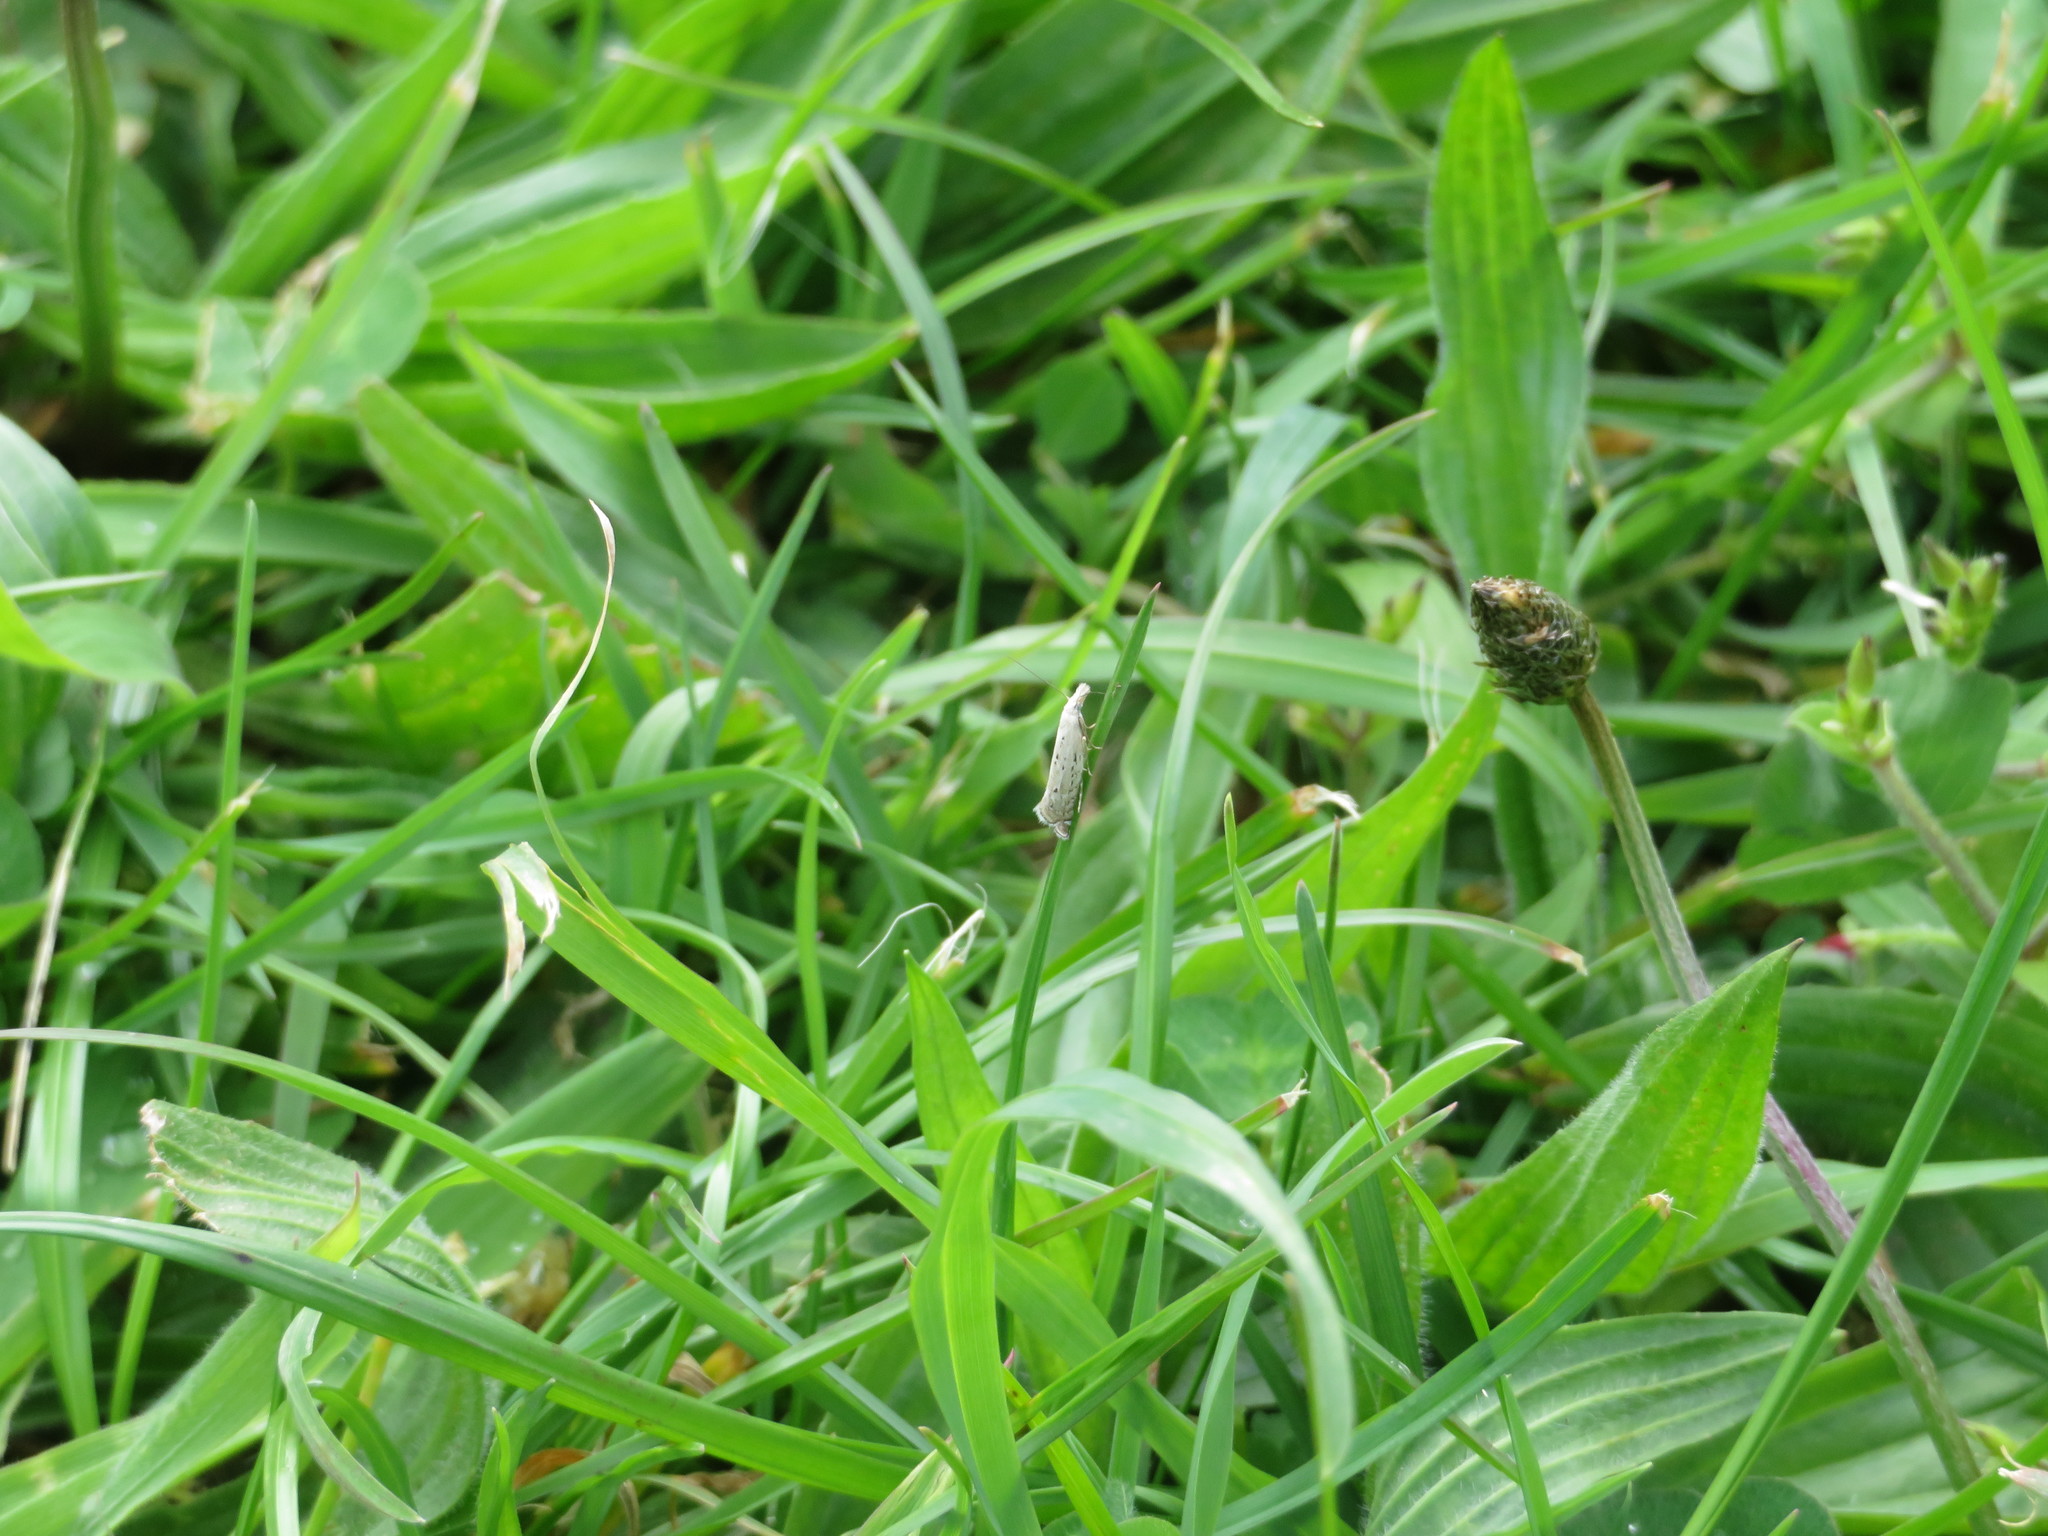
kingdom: Animalia
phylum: Arthropoda
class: Insecta
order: Lepidoptera
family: Glyphipterigidae
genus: Glyphipterix
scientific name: Glyphipterix achlyoessa
